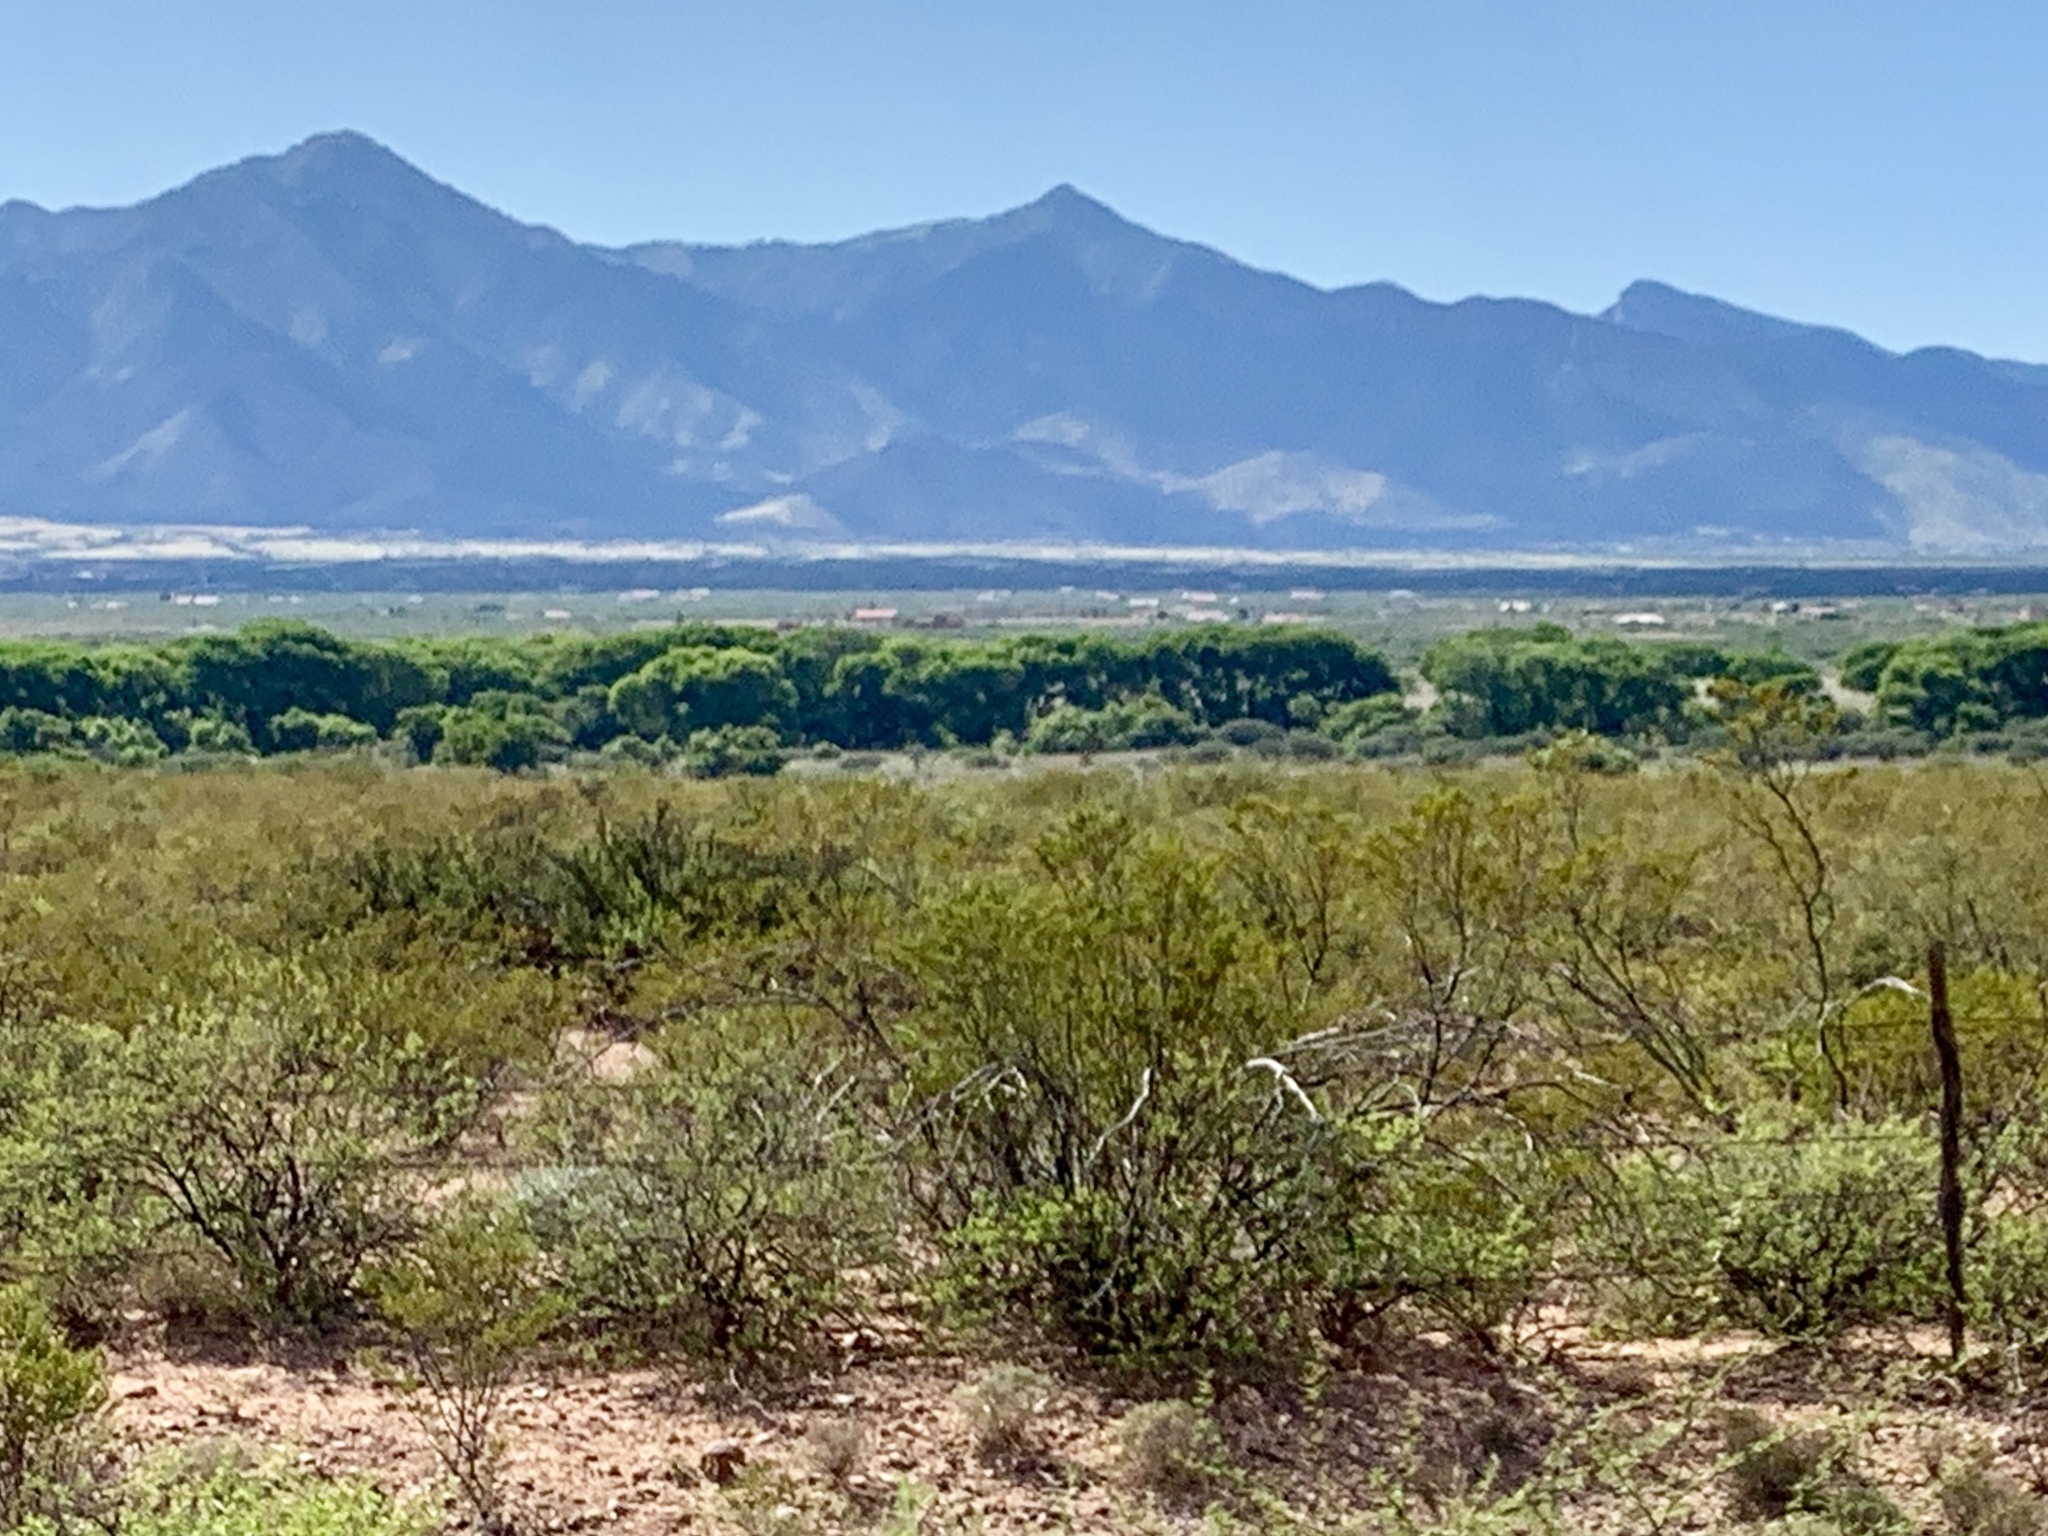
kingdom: Plantae
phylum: Tracheophyta
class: Magnoliopsida
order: Zygophyllales
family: Zygophyllaceae
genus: Larrea
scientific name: Larrea tridentata
